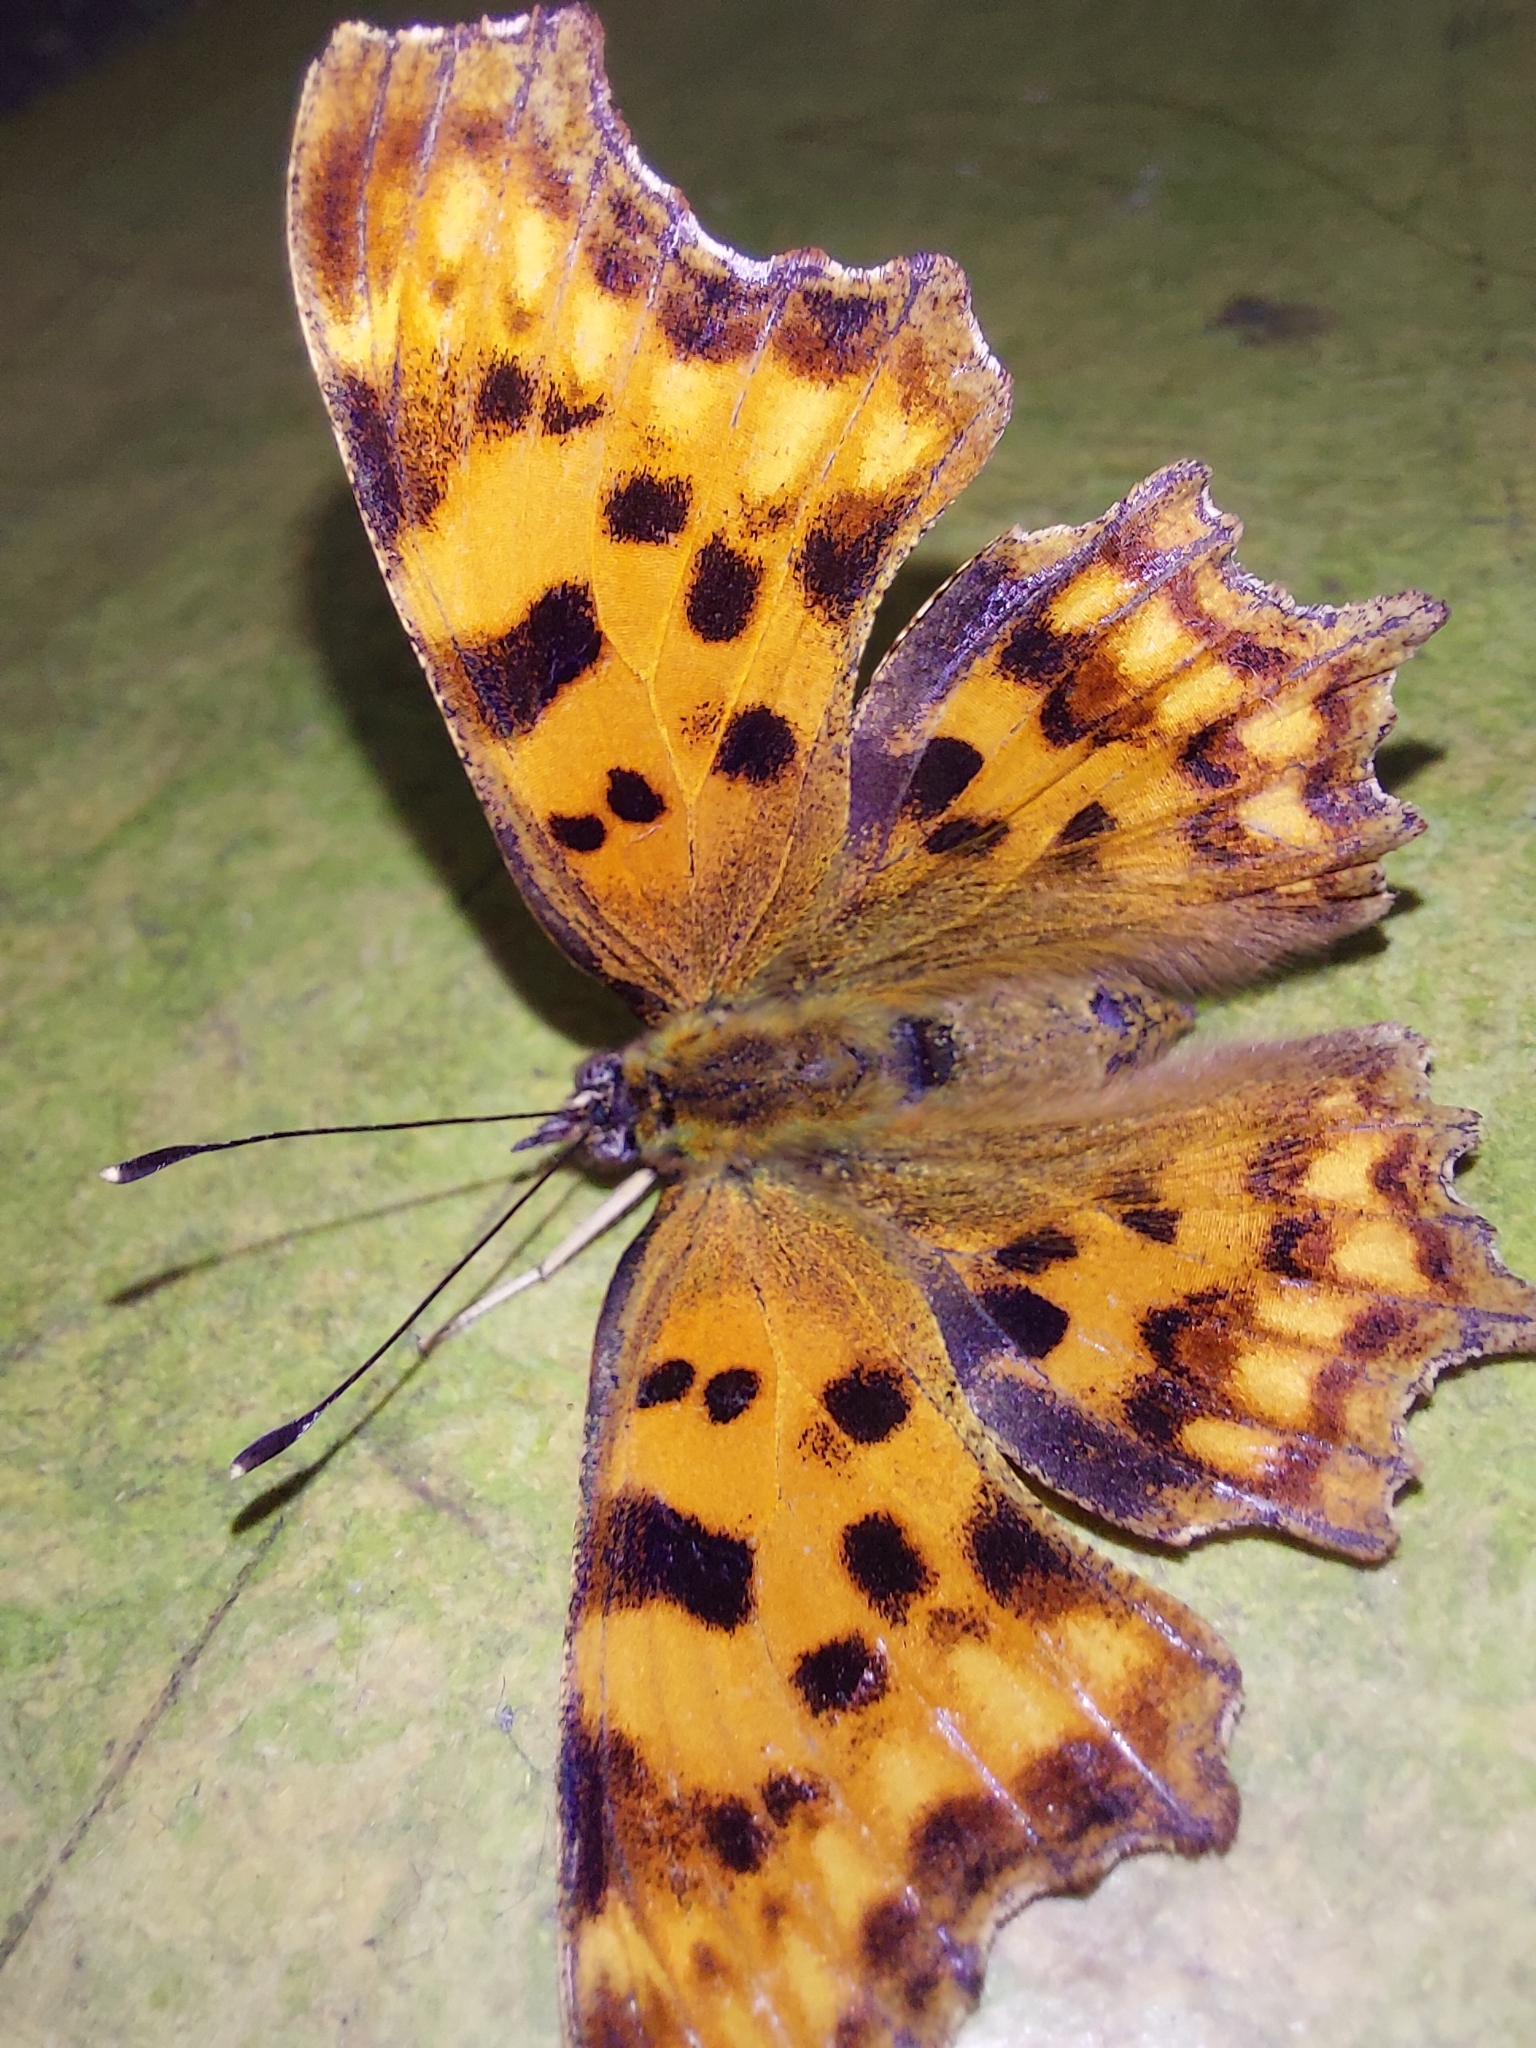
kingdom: Animalia
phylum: Arthropoda
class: Insecta
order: Lepidoptera
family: Nymphalidae
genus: Polygonia
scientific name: Polygonia c-album
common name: Comma
